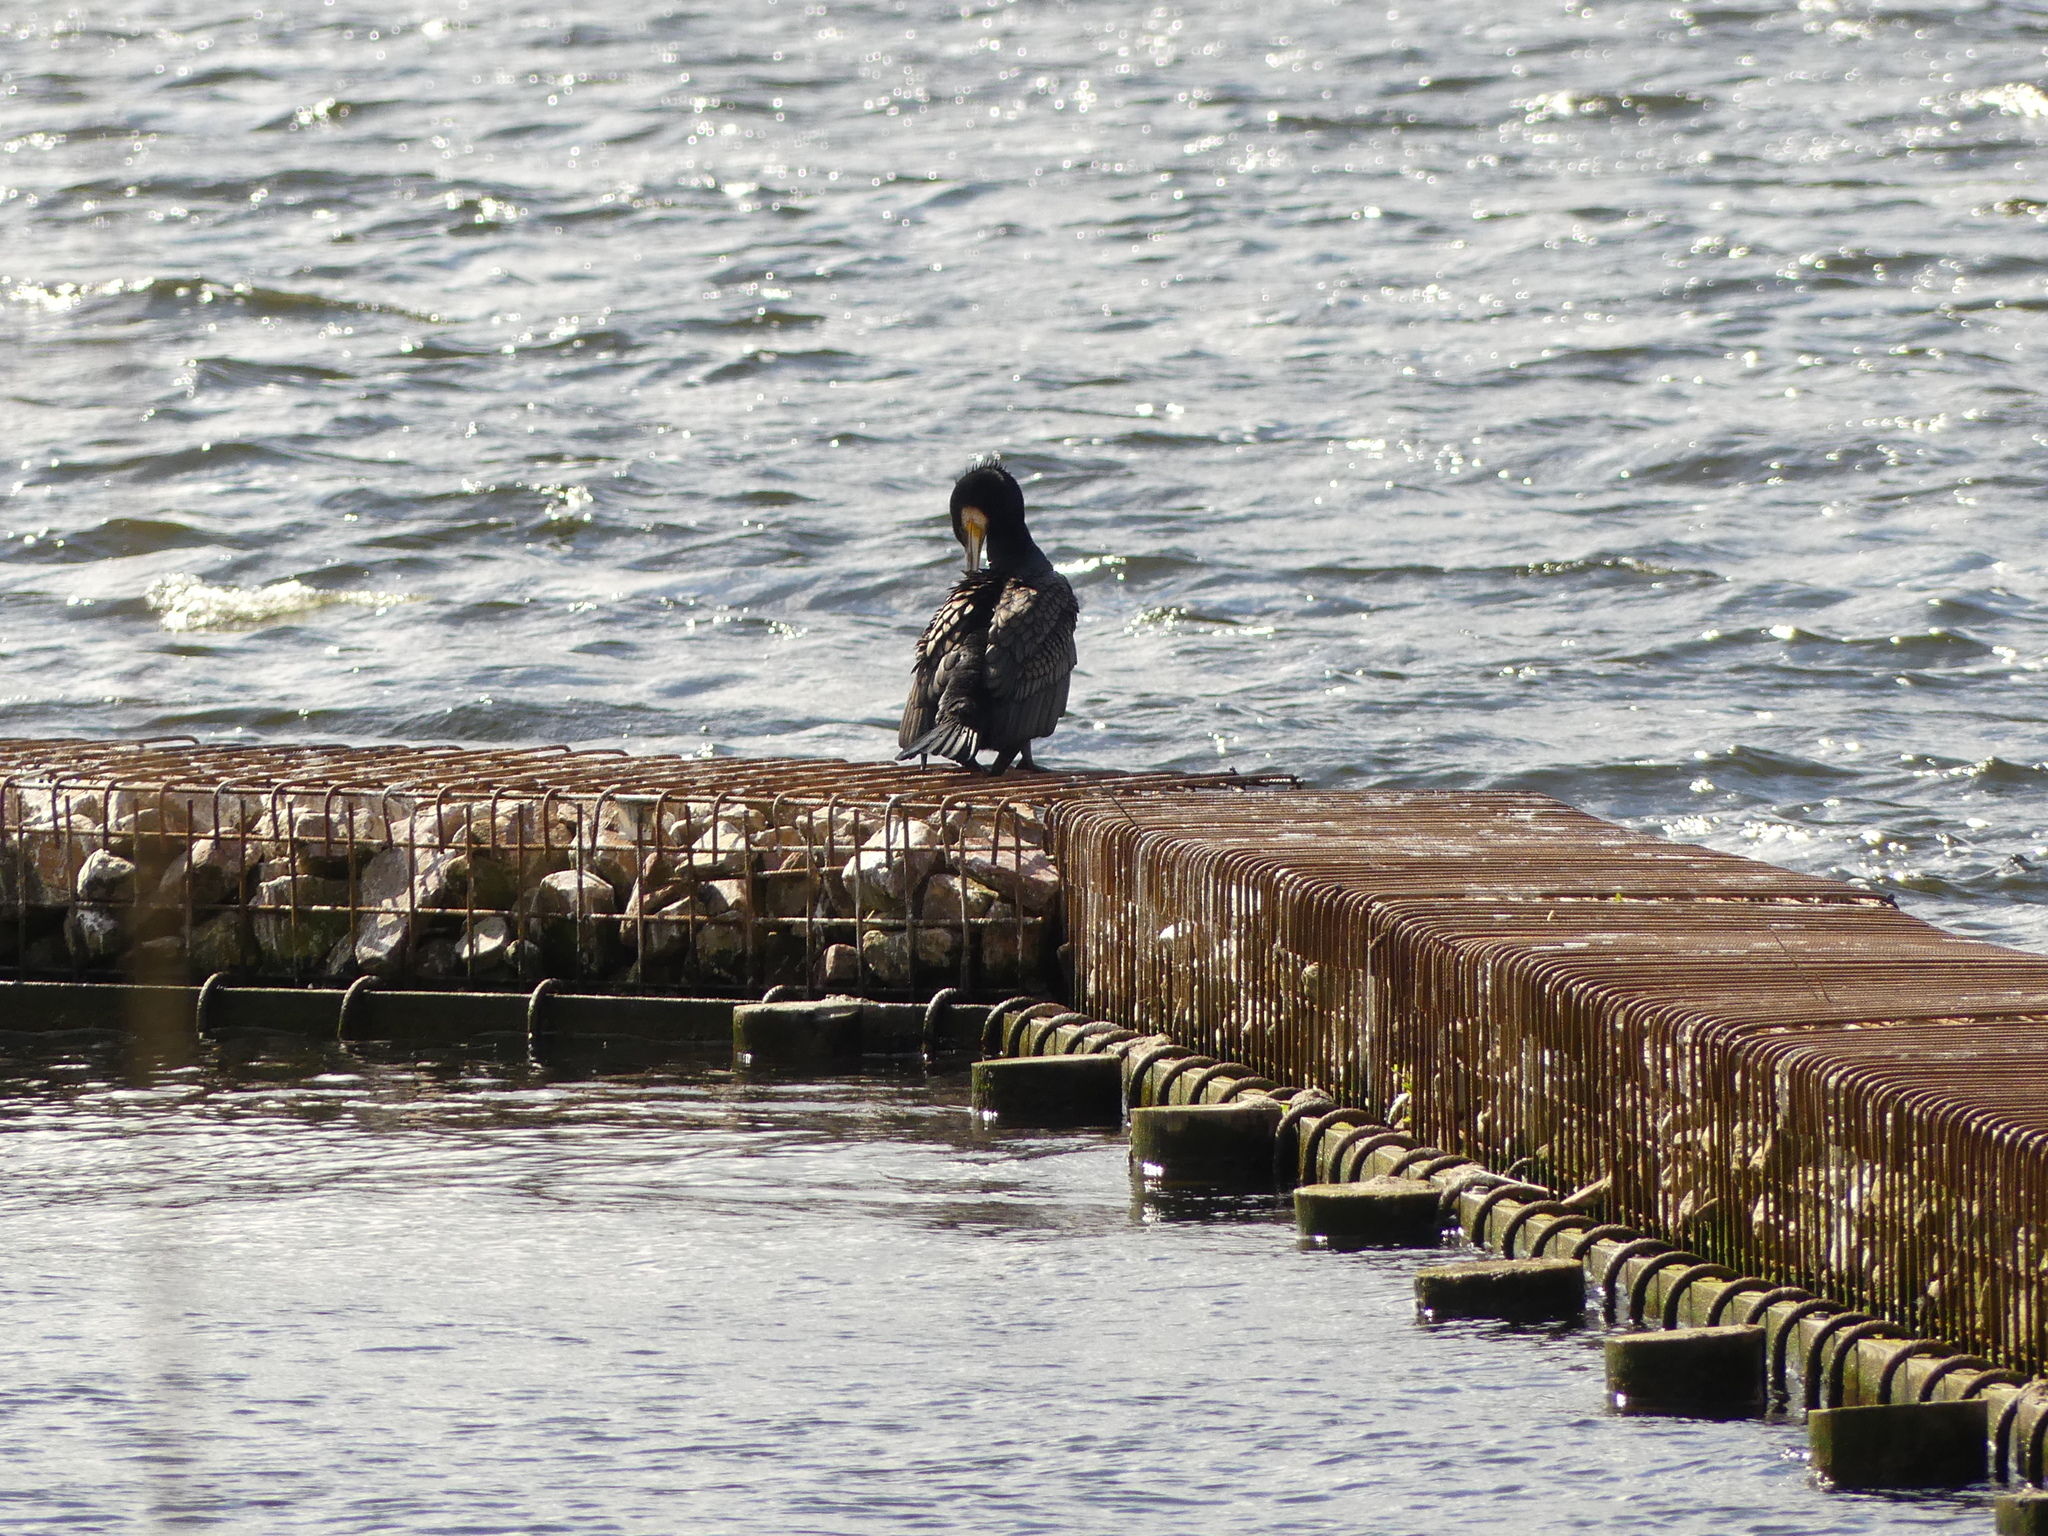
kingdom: Animalia
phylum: Chordata
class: Aves
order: Suliformes
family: Phalacrocoracidae
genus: Phalacrocorax
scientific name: Phalacrocorax carbo
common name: Great cormorant
